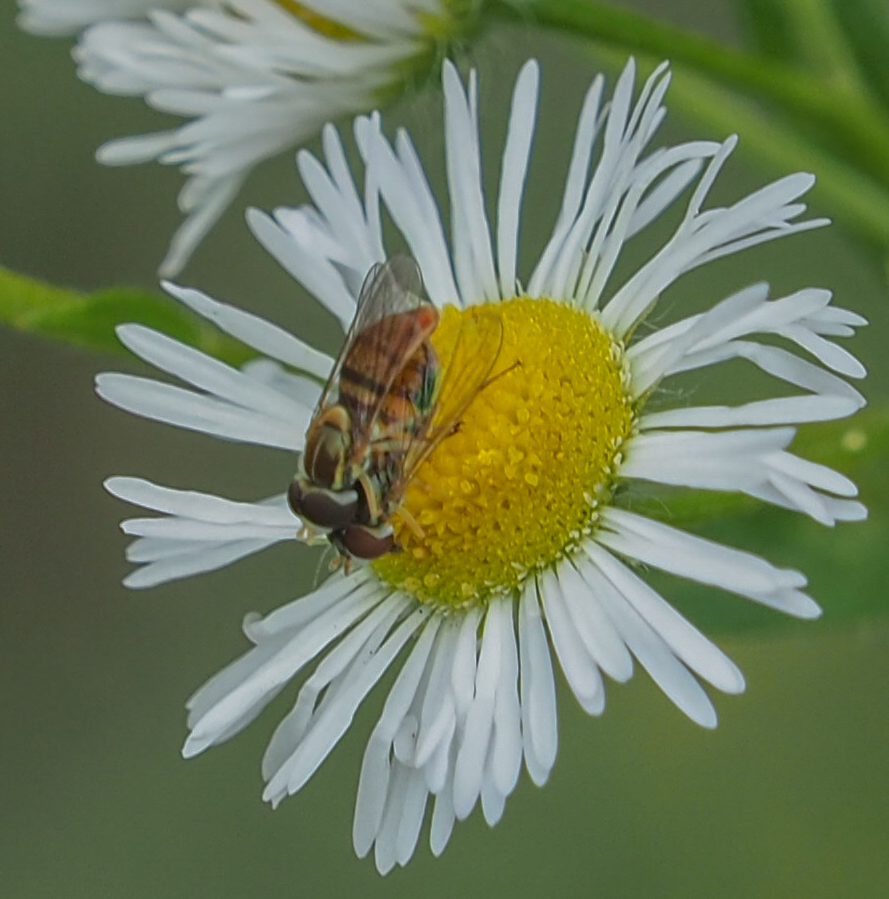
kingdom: Animalia
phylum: Arthropoda
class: Insecta
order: Diptera
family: Syrphidae
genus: Toxomerus
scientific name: Toxomerus marginatus
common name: Syrphid fly
